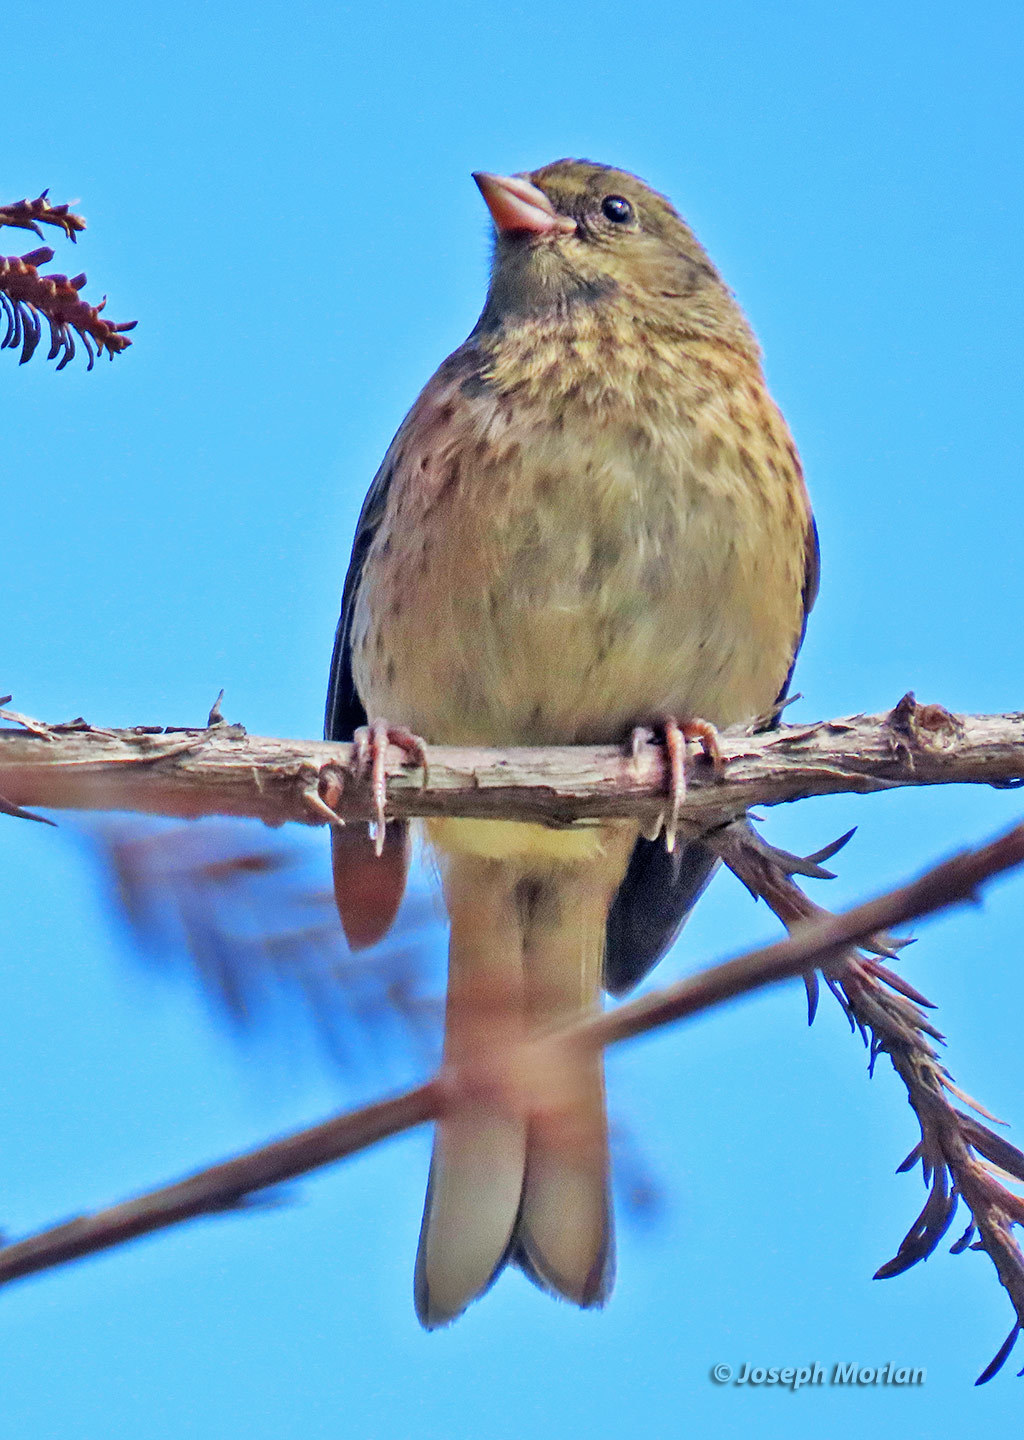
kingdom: Animalia
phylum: Chordata
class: Aves
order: Passeriformes
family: Passerellidae
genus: Junco
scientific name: Junco hyemalis
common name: Dark-eyed junco
